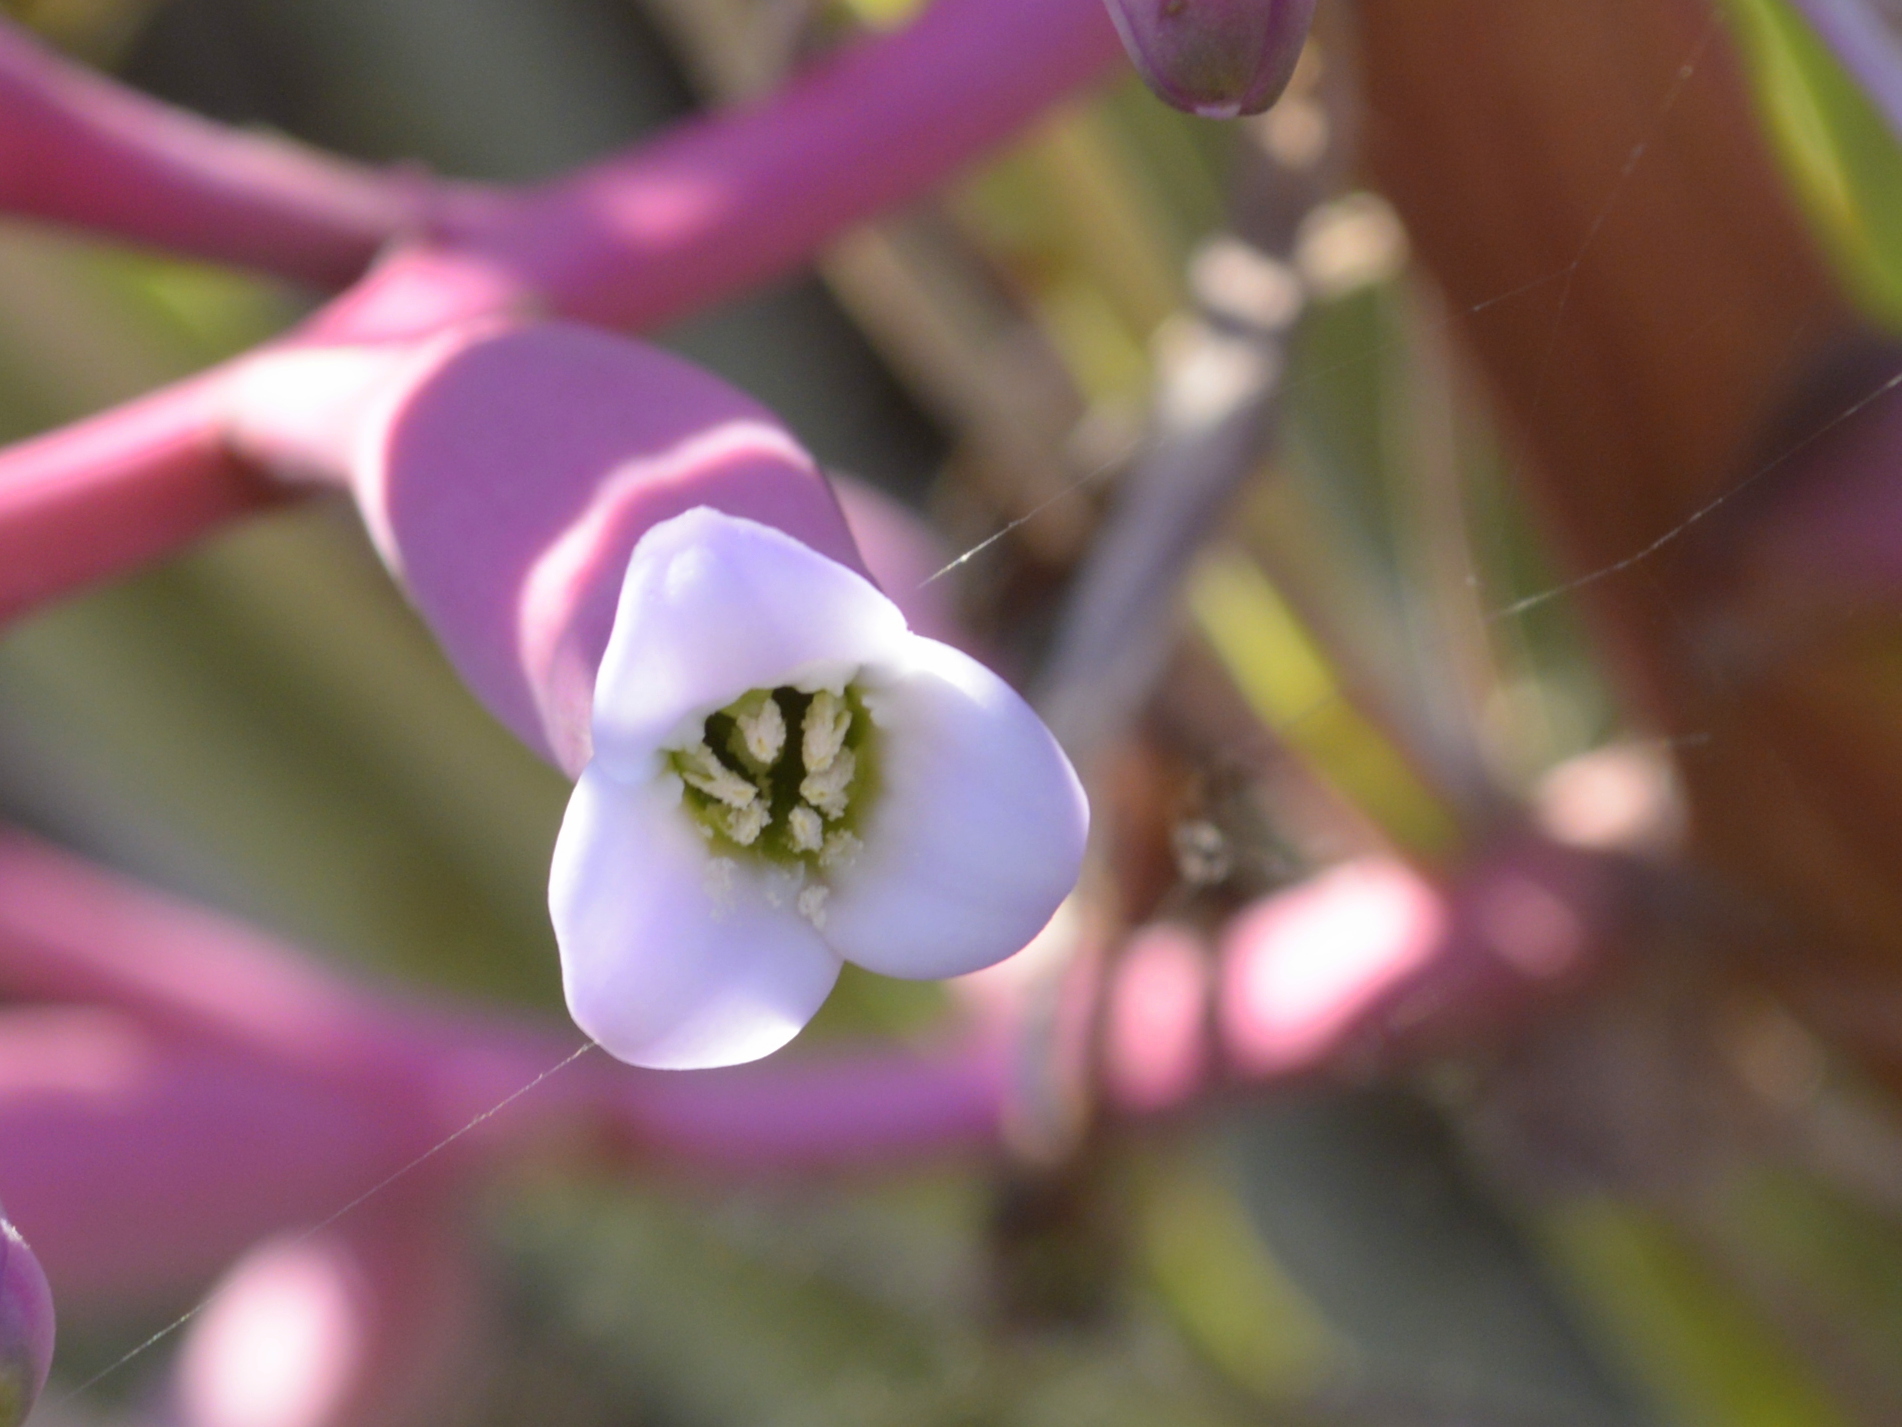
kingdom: Plantae
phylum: Tracheophyta
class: Liliopsida
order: Poales
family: Bromeliaceae
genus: Bromelia
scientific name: Bromelia hieronymi
